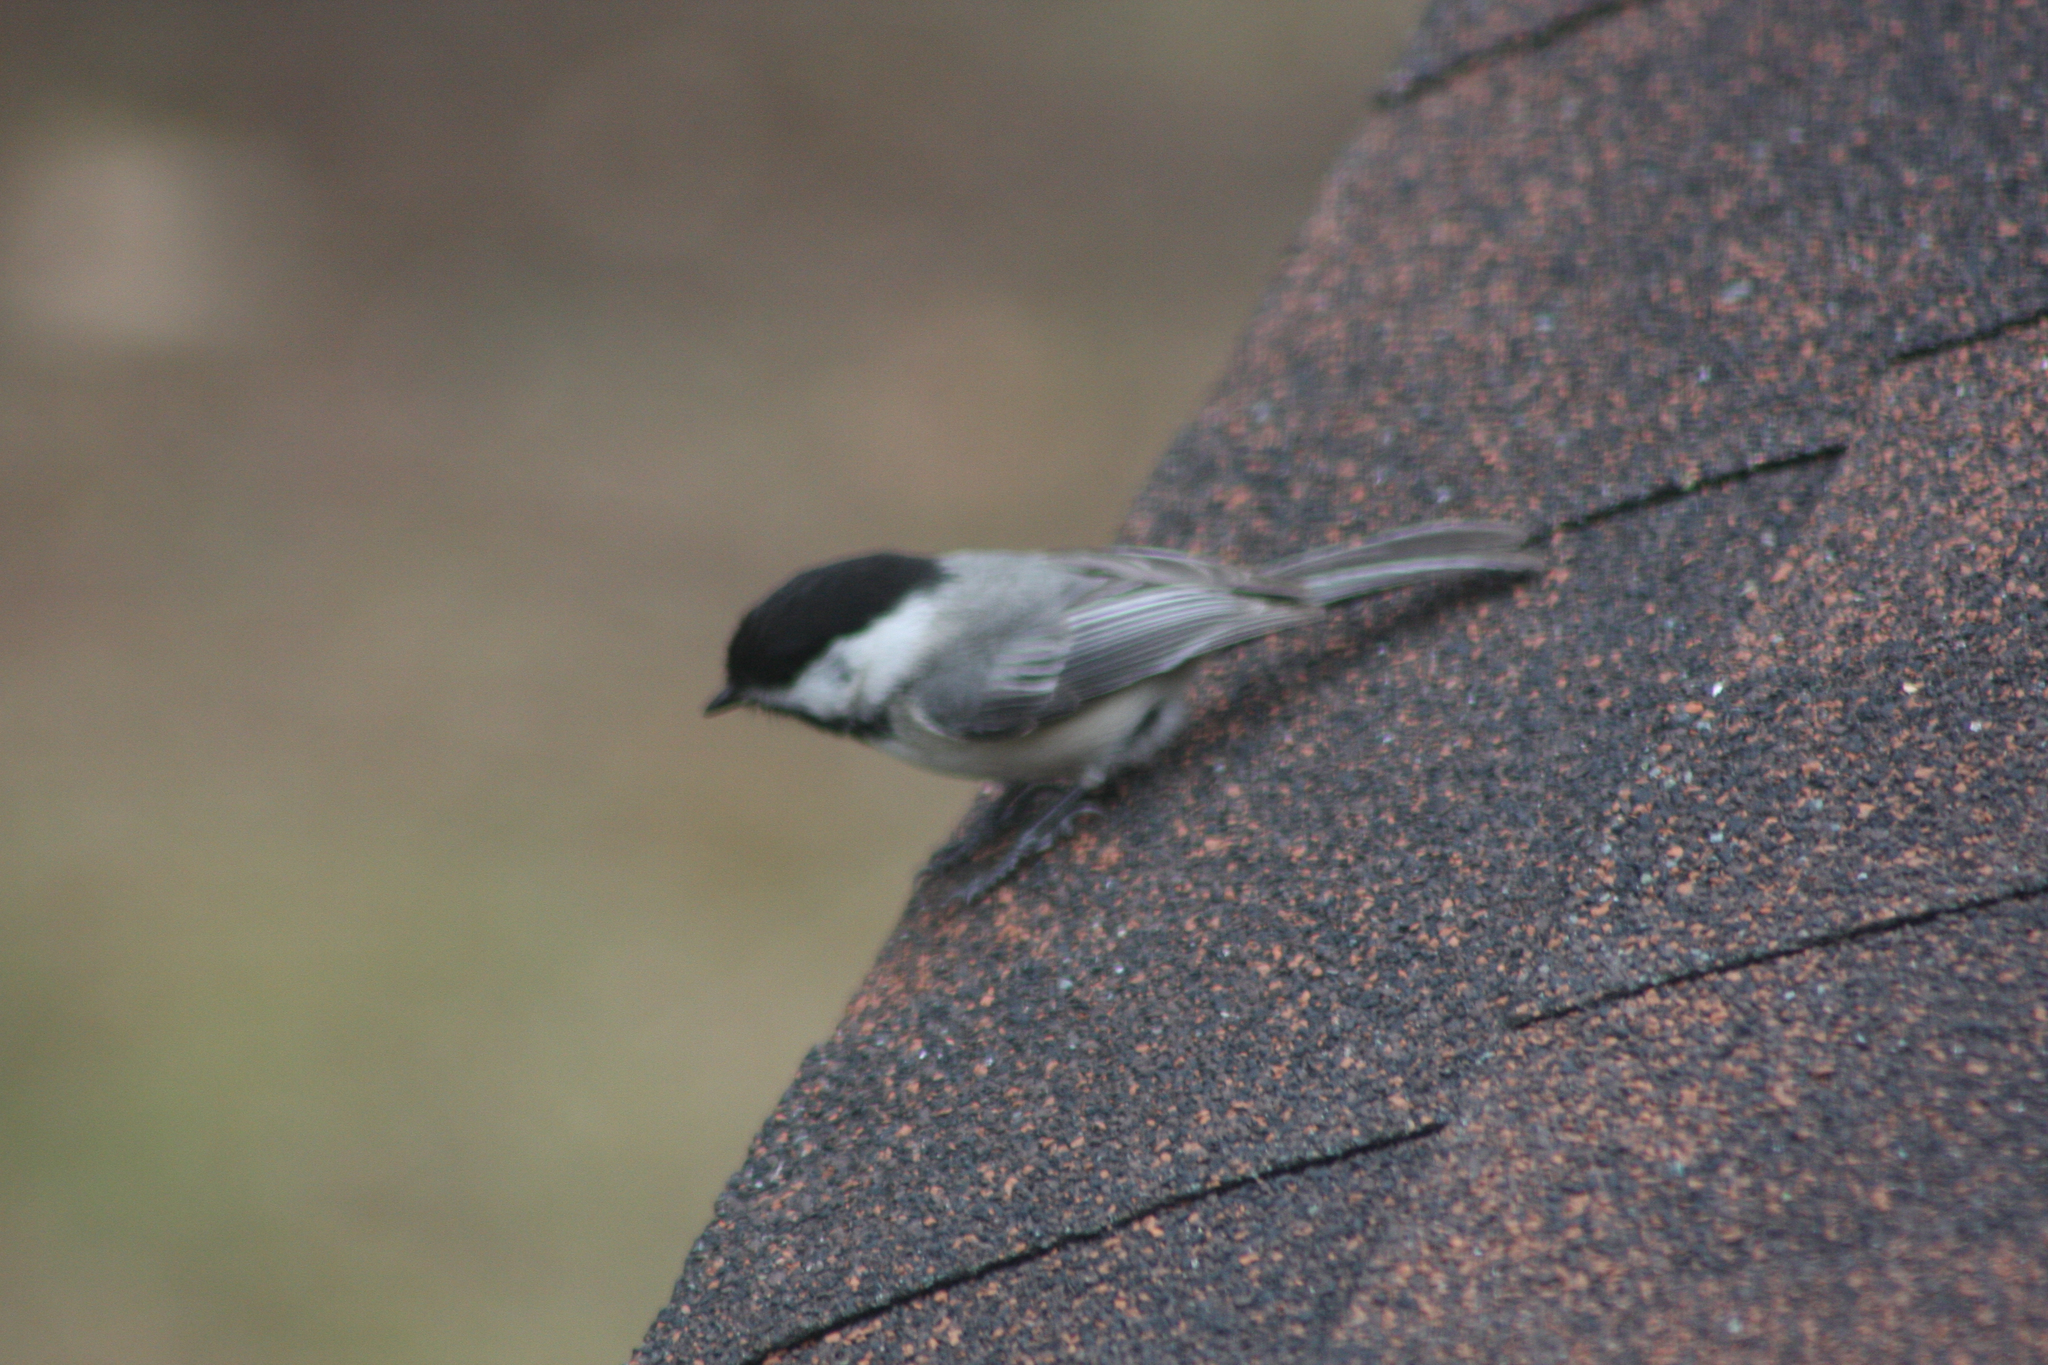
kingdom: Animalia
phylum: Chordata
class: Aves
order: Passeriformes
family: Paridae
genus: Poecile
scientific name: Poecile atricapillus
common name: Black-capped chickadee
